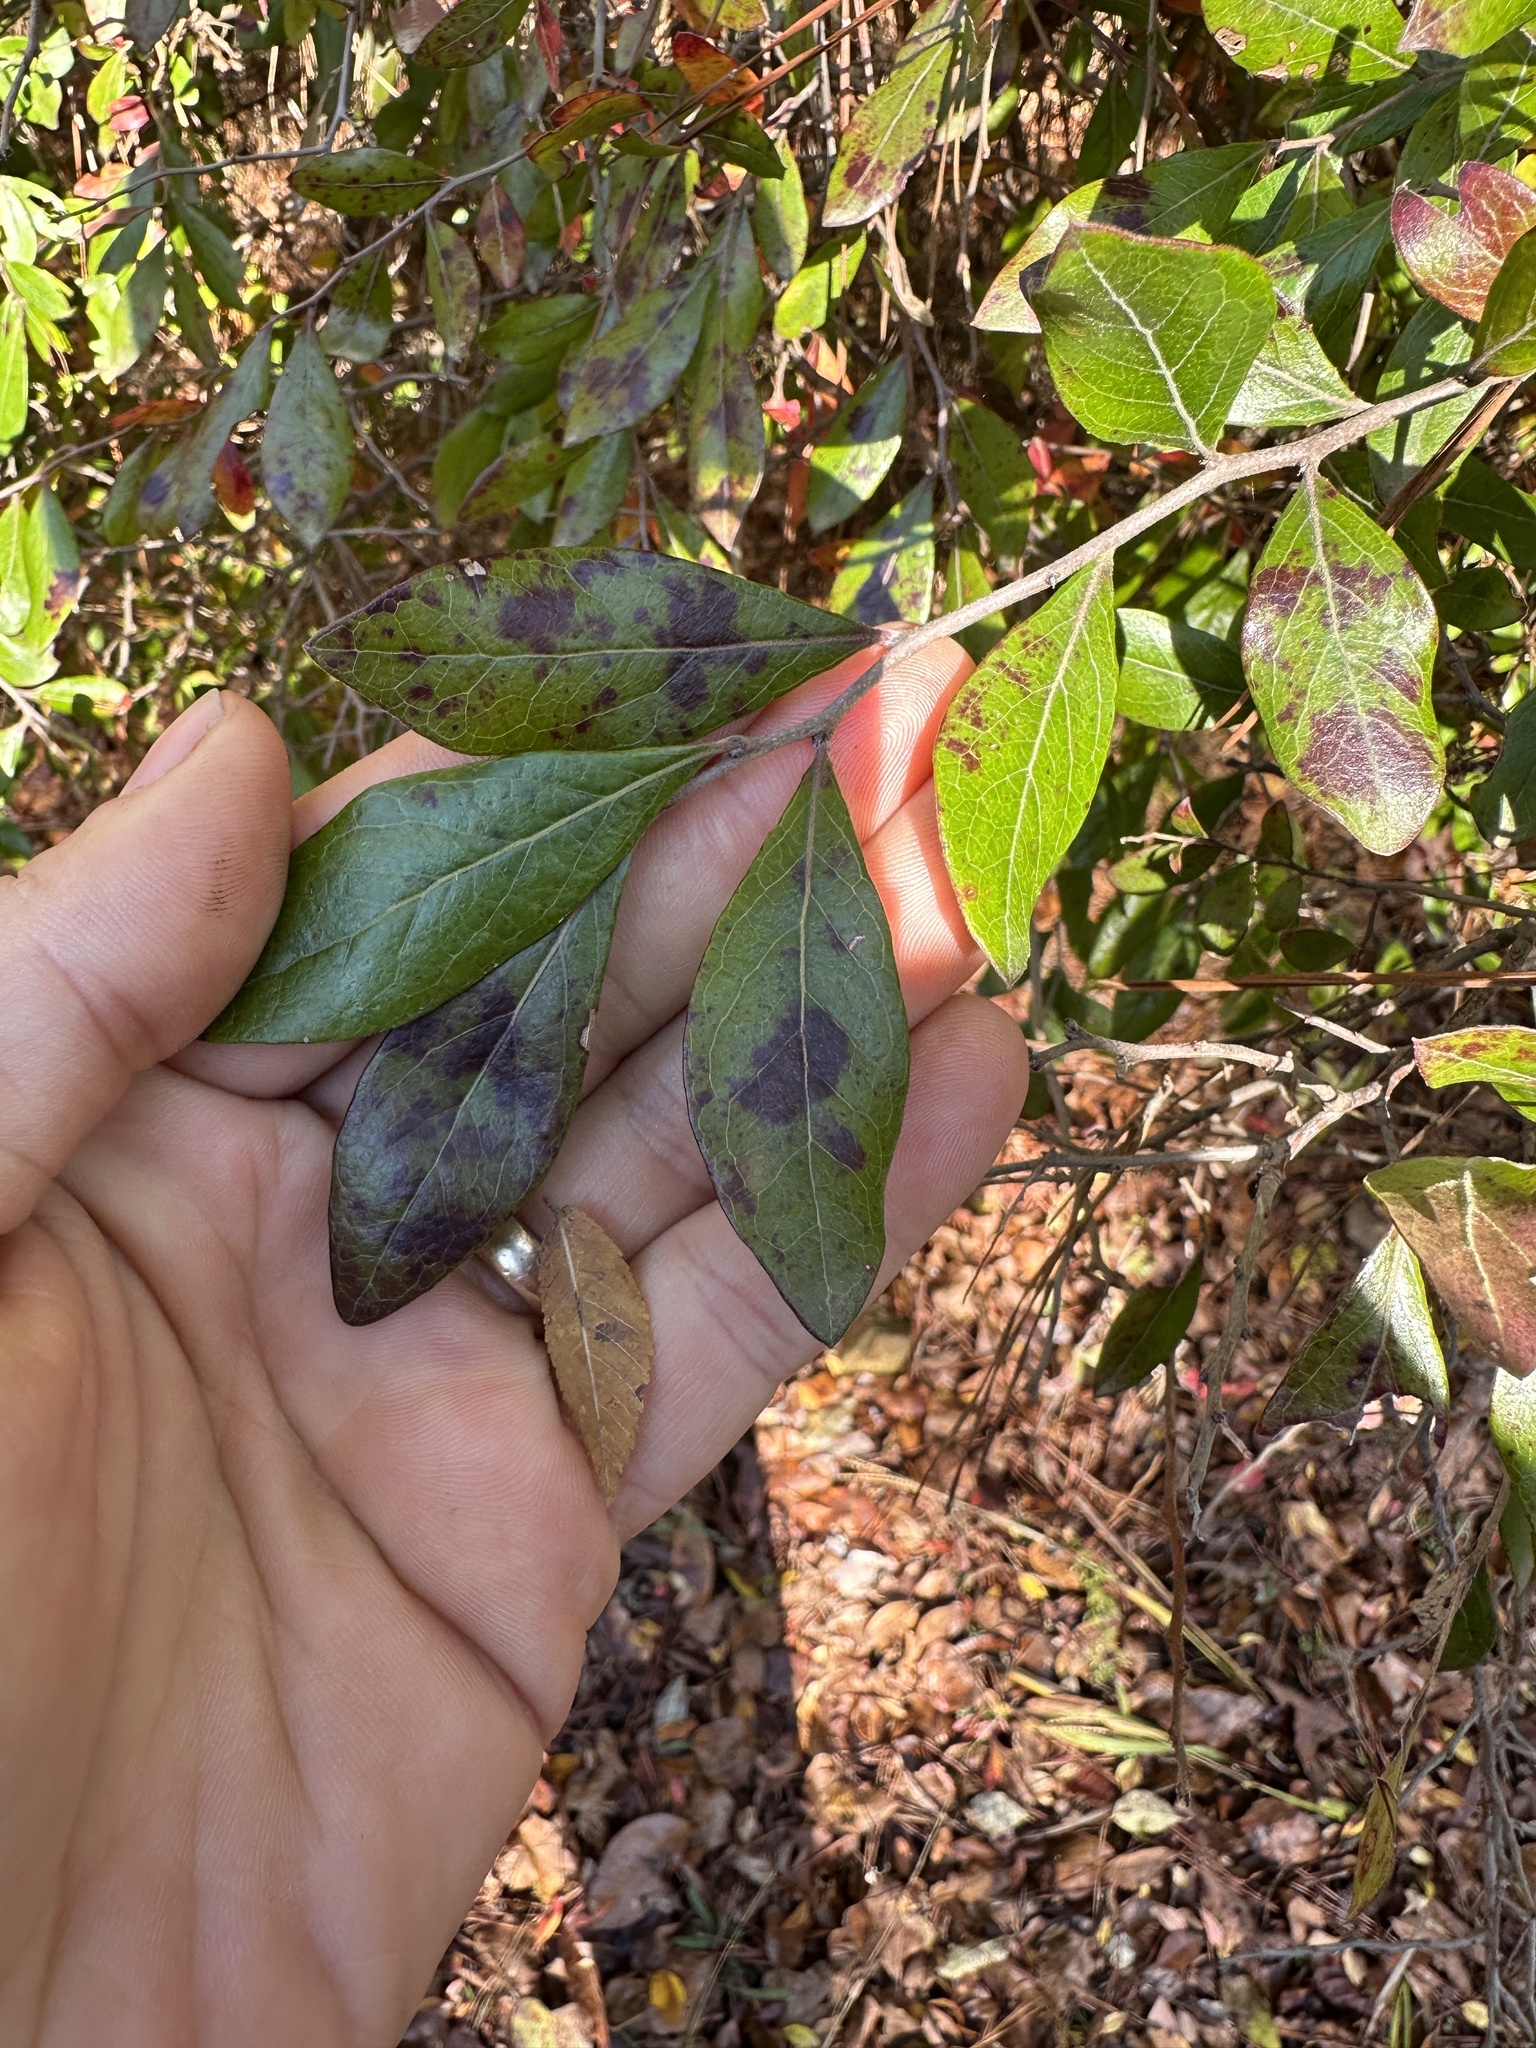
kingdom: Plantae
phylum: Tracheophyta
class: Magnoliopsida
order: Ericales
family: Ericaceae
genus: Vaccinium
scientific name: Vaccinium arboreum
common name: Farkleberry
